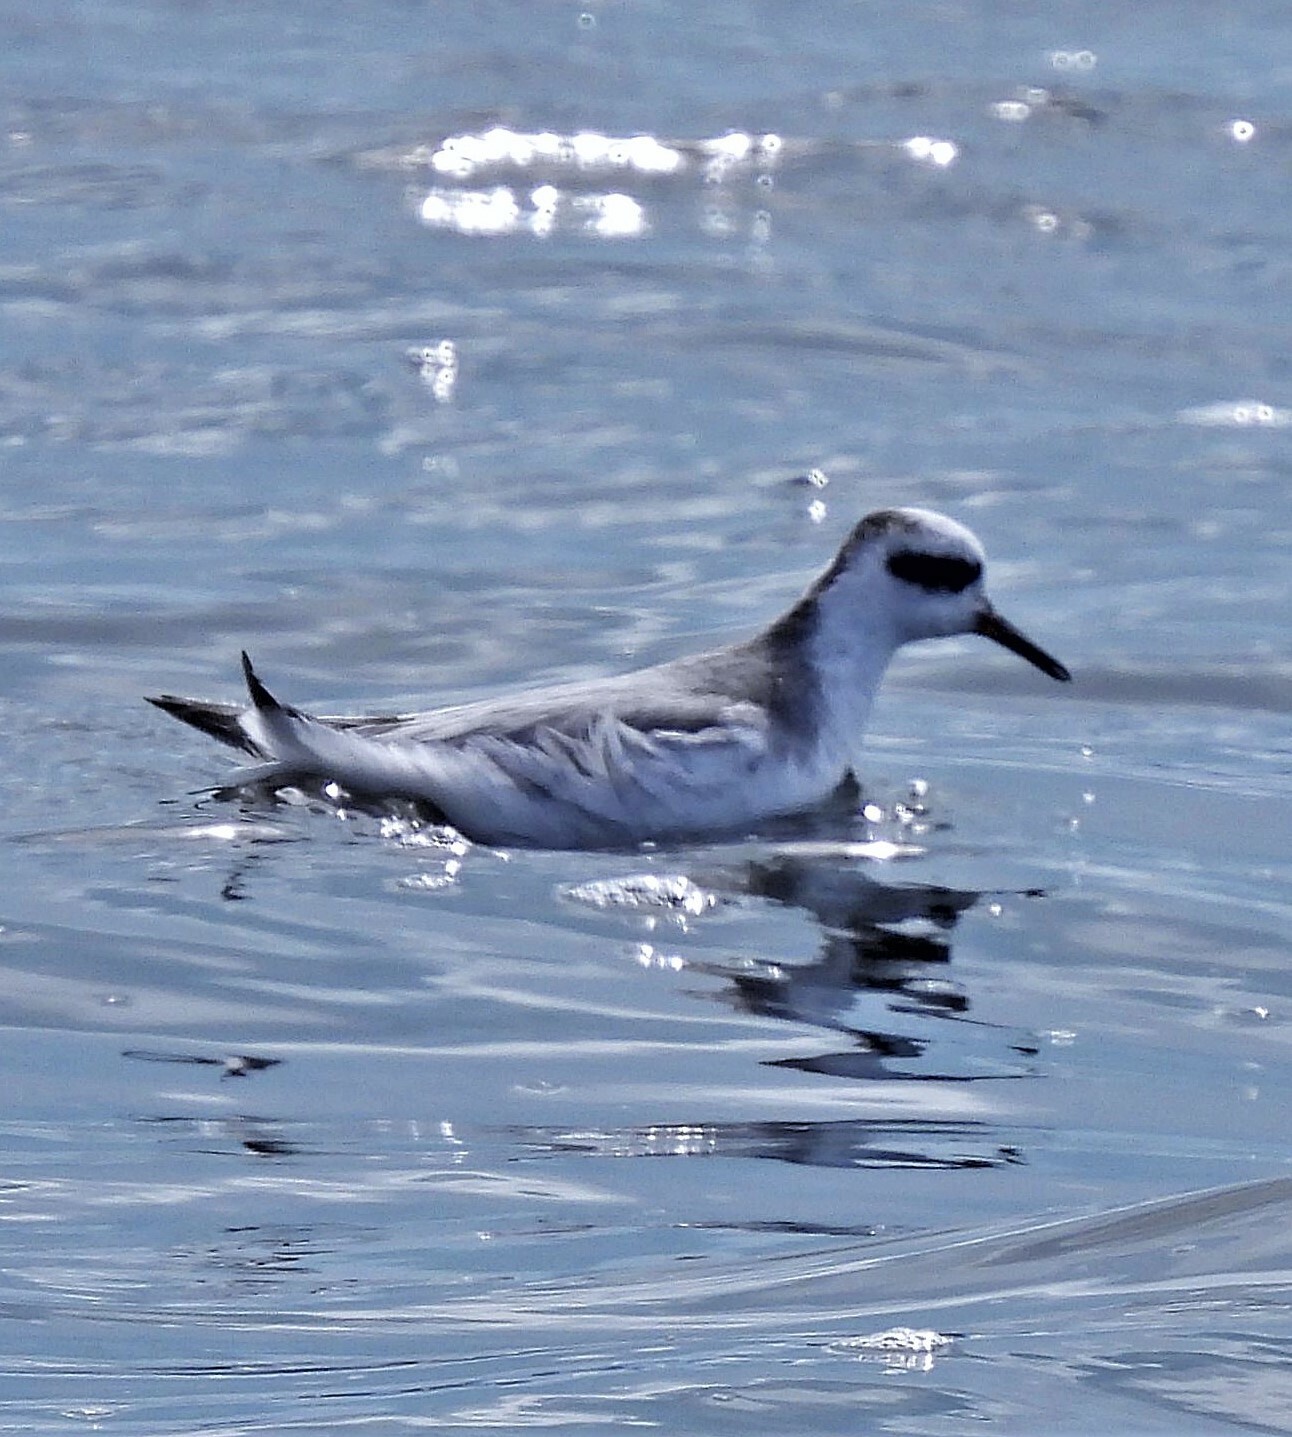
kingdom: Animalia
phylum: Chordata
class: Aves
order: Charadriiformes
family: Scolopacidae
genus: Phalaropus
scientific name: Phalaropus fulicarius
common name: Red phalarope
